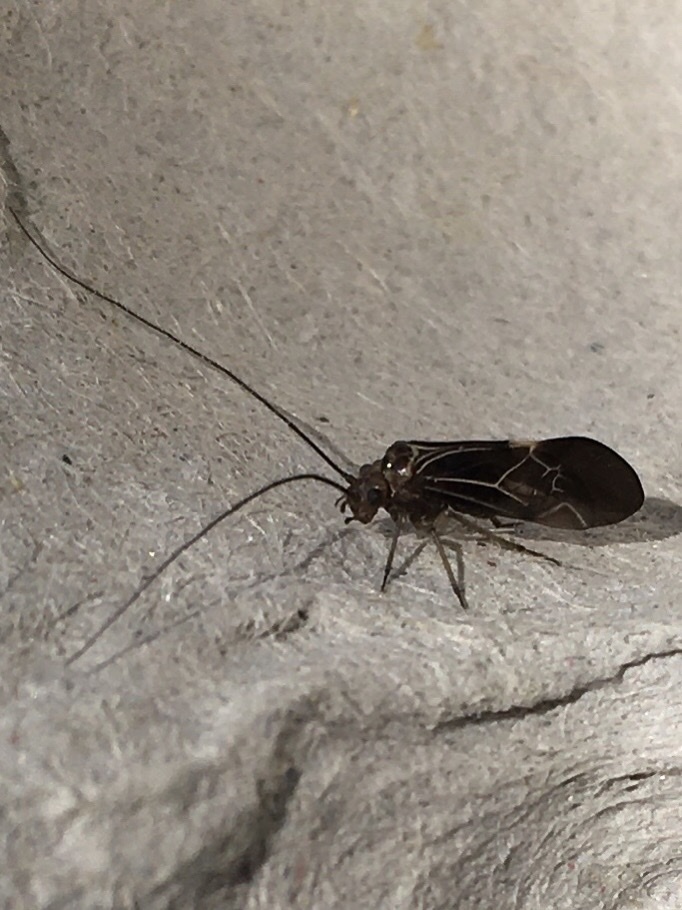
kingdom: Animalia
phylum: Arthropoda
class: Insecta
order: Psocodea
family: Psocidae
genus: Cerastipsocus
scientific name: Cerastipsocus venosus
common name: Tree cattle
